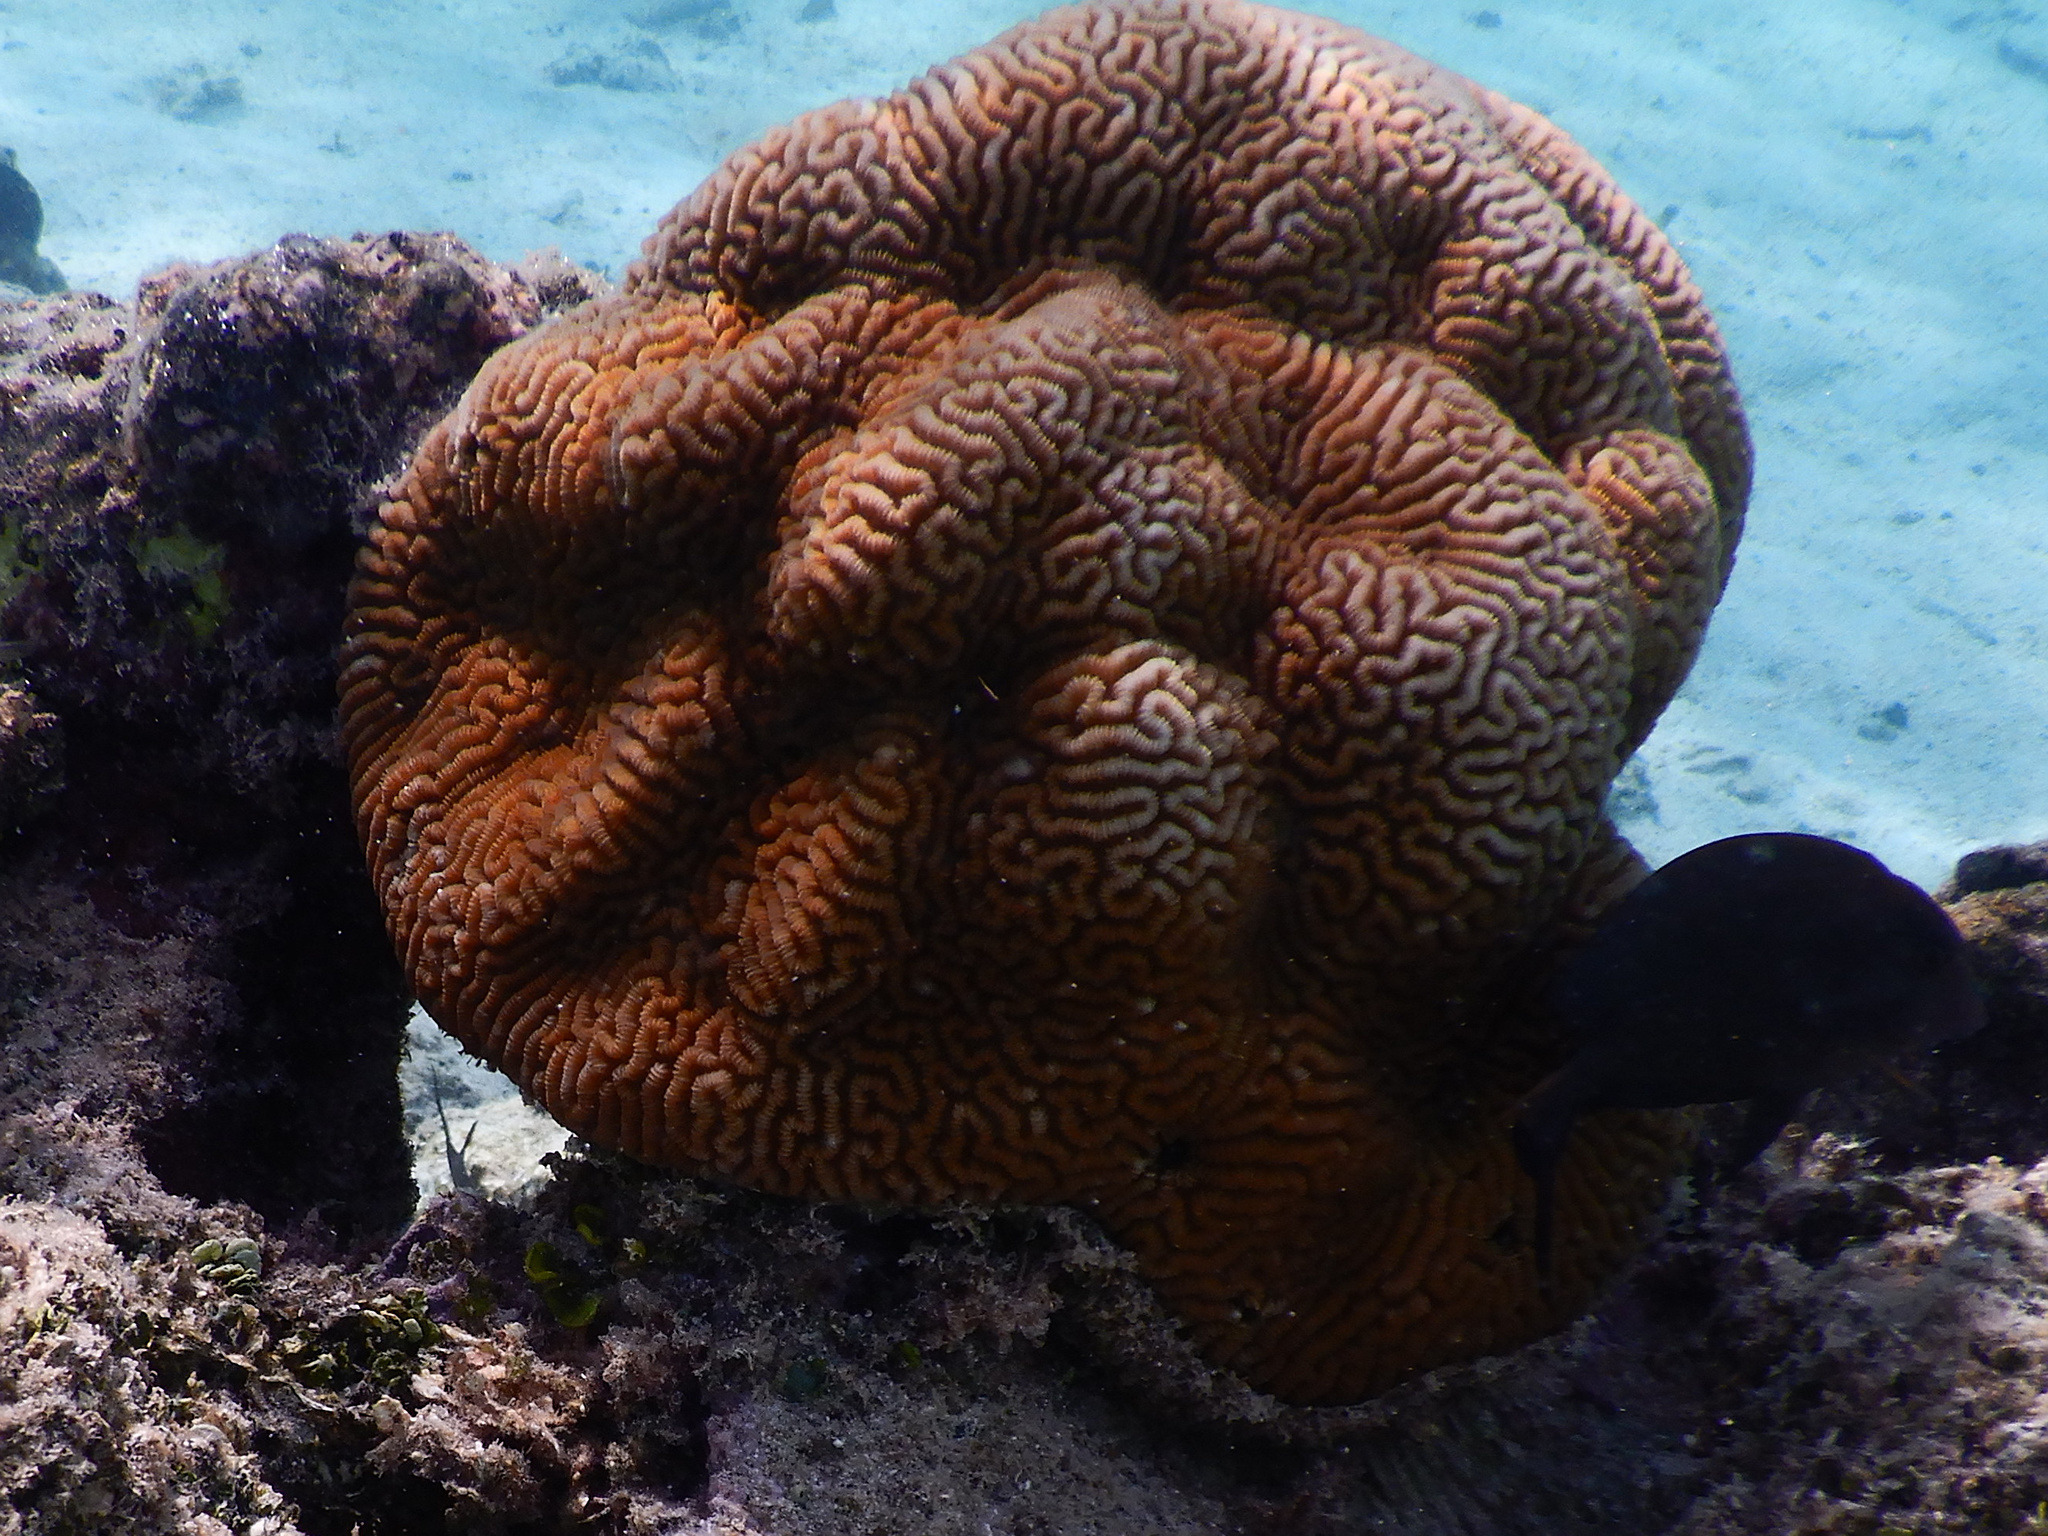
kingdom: Animalia
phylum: Cnidaria
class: Anthozoa
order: Scleractinia
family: Merulinidae
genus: Leptoria
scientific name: Leptoria phrygia
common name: Least valley coral
